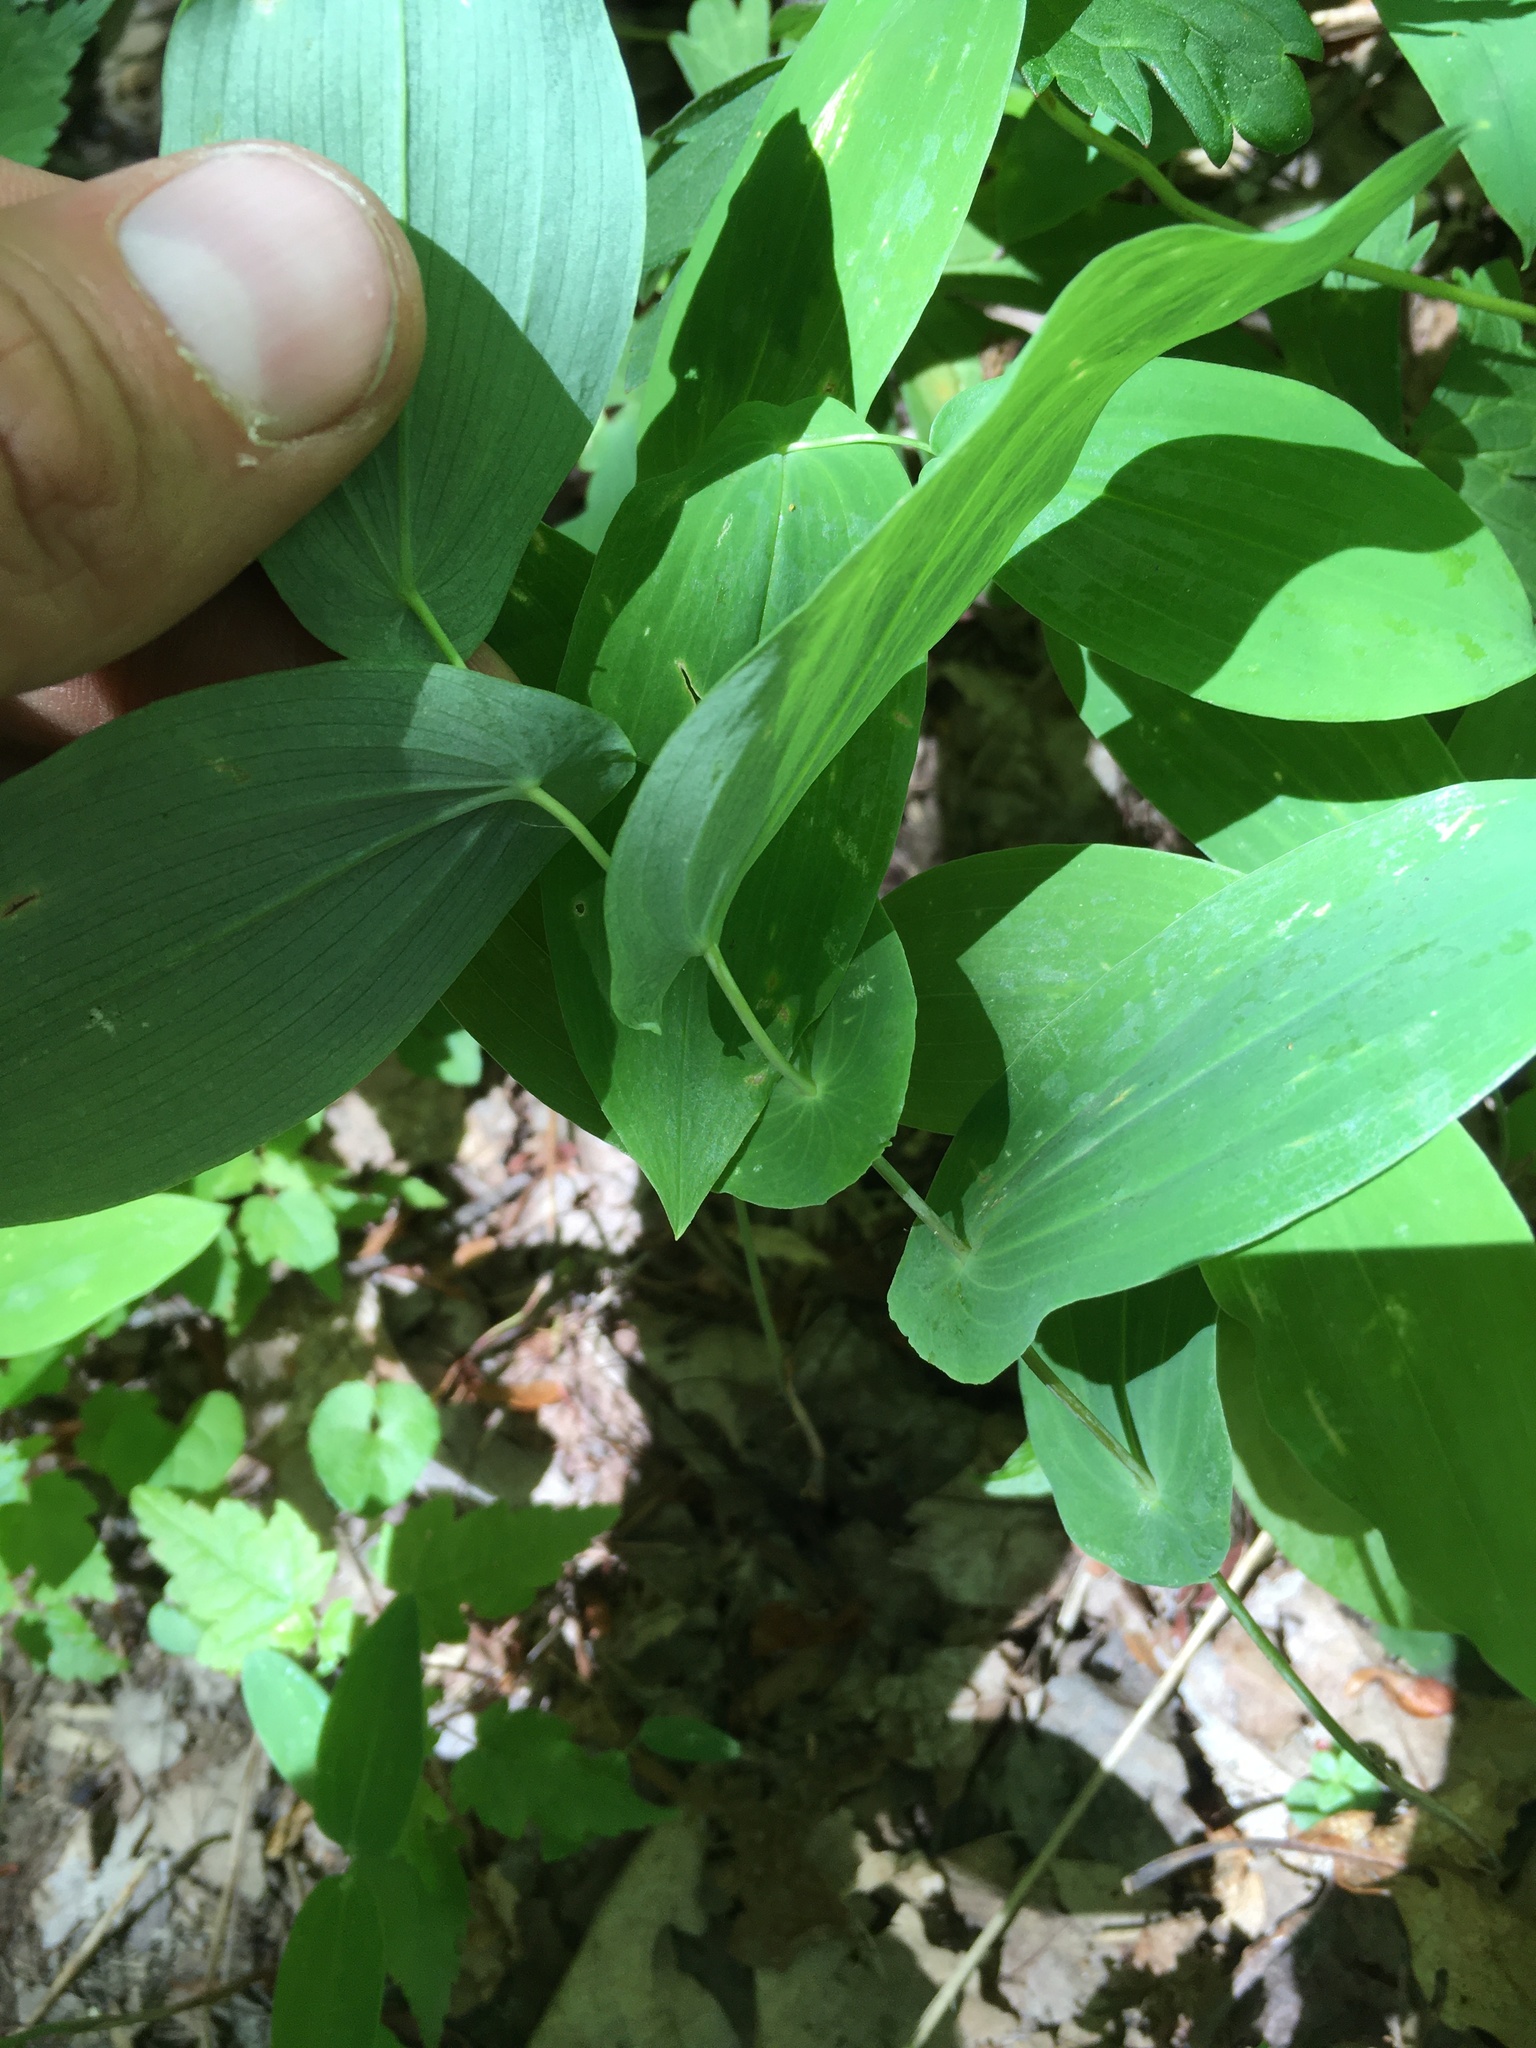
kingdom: Plantae
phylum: Tracheophyta
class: Liliopsida
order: Liliales
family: Colchicaceae
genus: Uvularia
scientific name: Uvularia perfoliata
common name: Perfoliate bellwort
